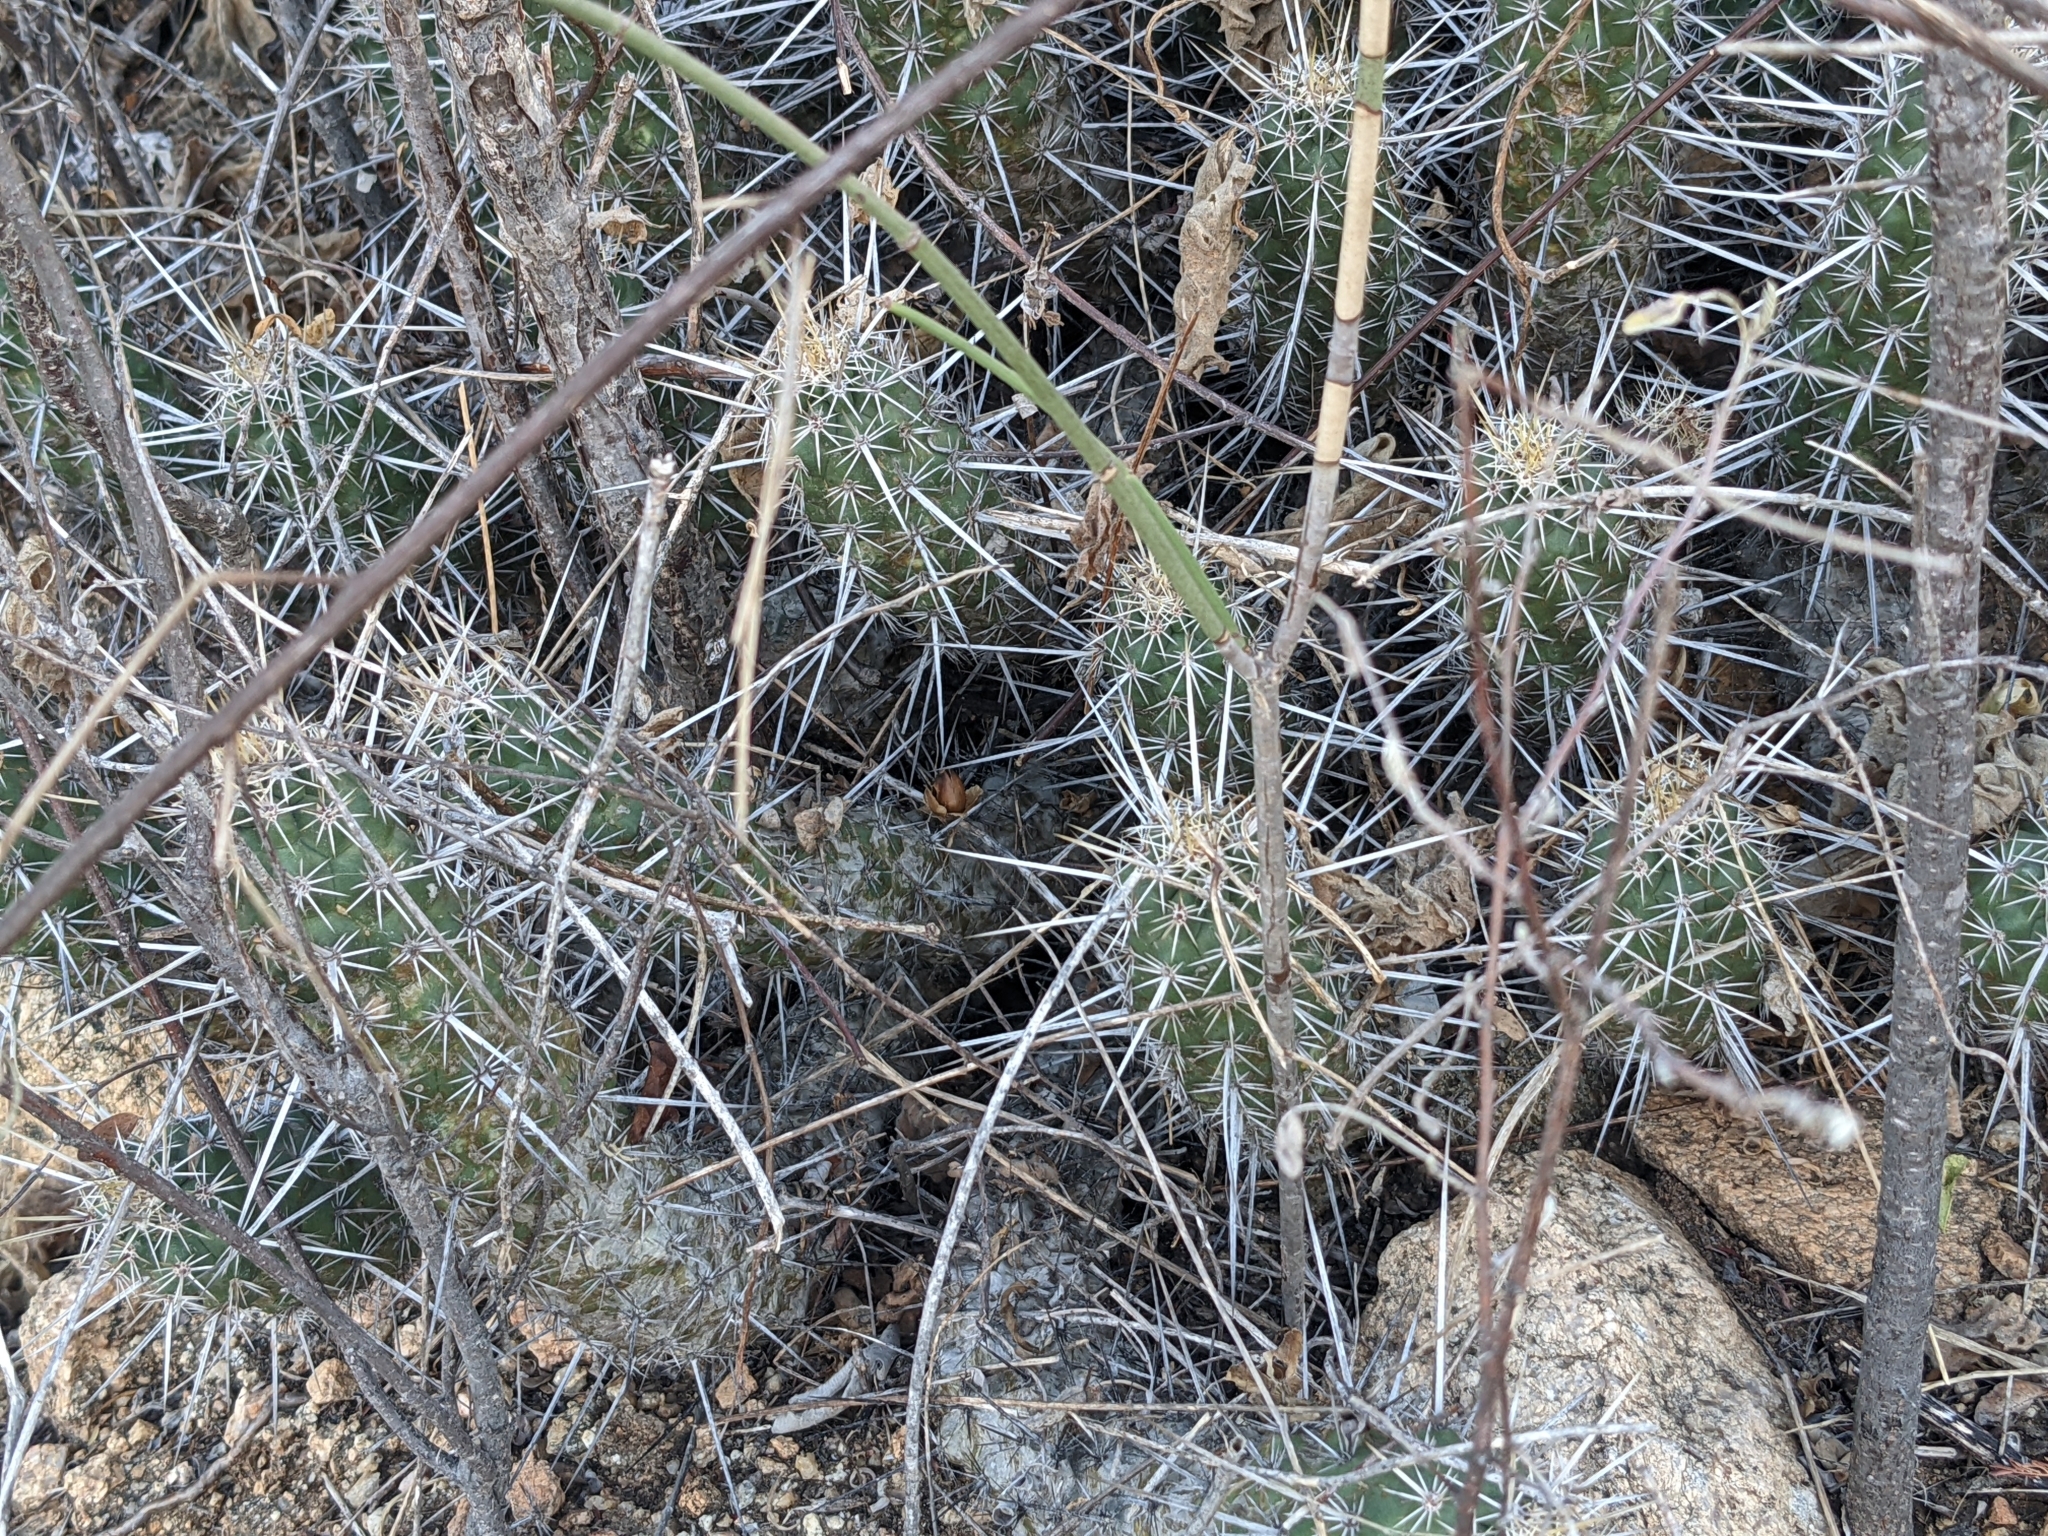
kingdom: Plantae
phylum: Tracheophyta
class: Magnoliopsida
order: Caryophyllales
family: Cactaceae
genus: Echinocereus
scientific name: Echinocereus brandegeei
